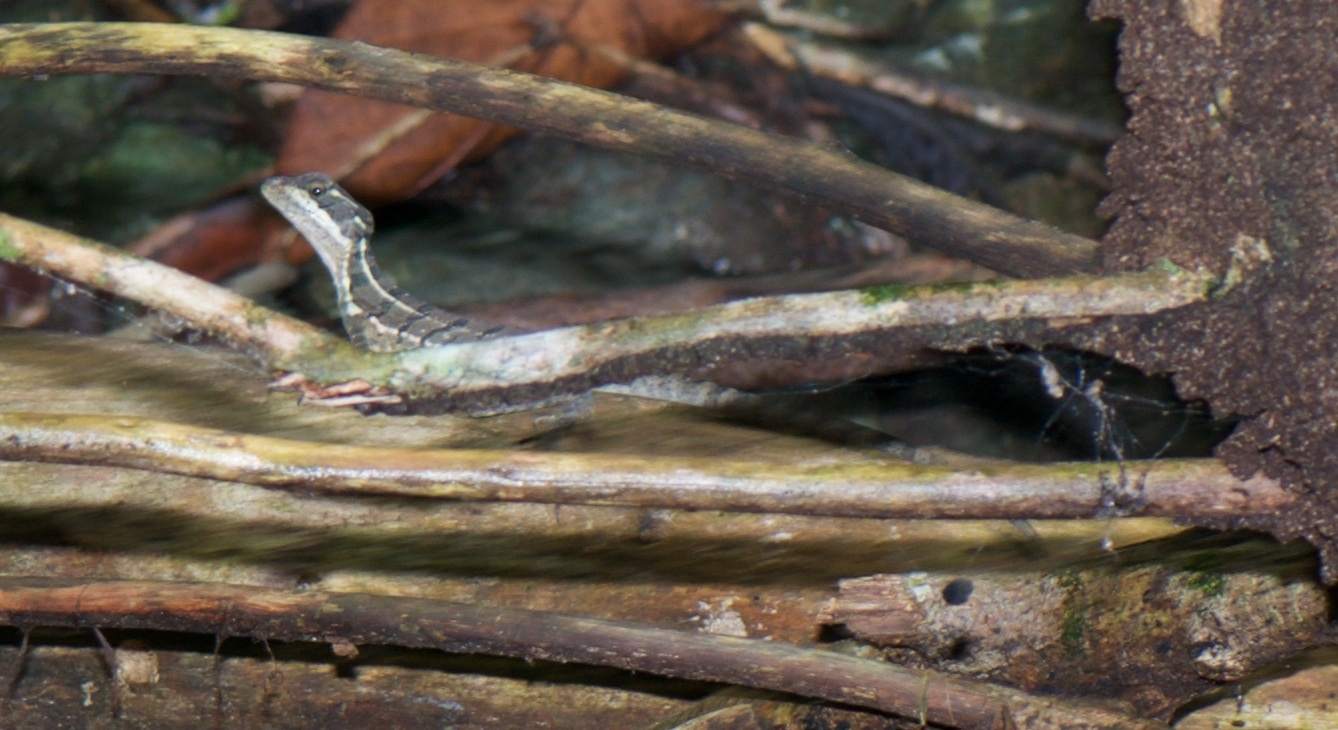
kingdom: Animalia
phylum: Chordata
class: Squamata
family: Corytophanidae
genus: Basiliscus
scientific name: Basiliscus basiliscus
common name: Common basilisk
